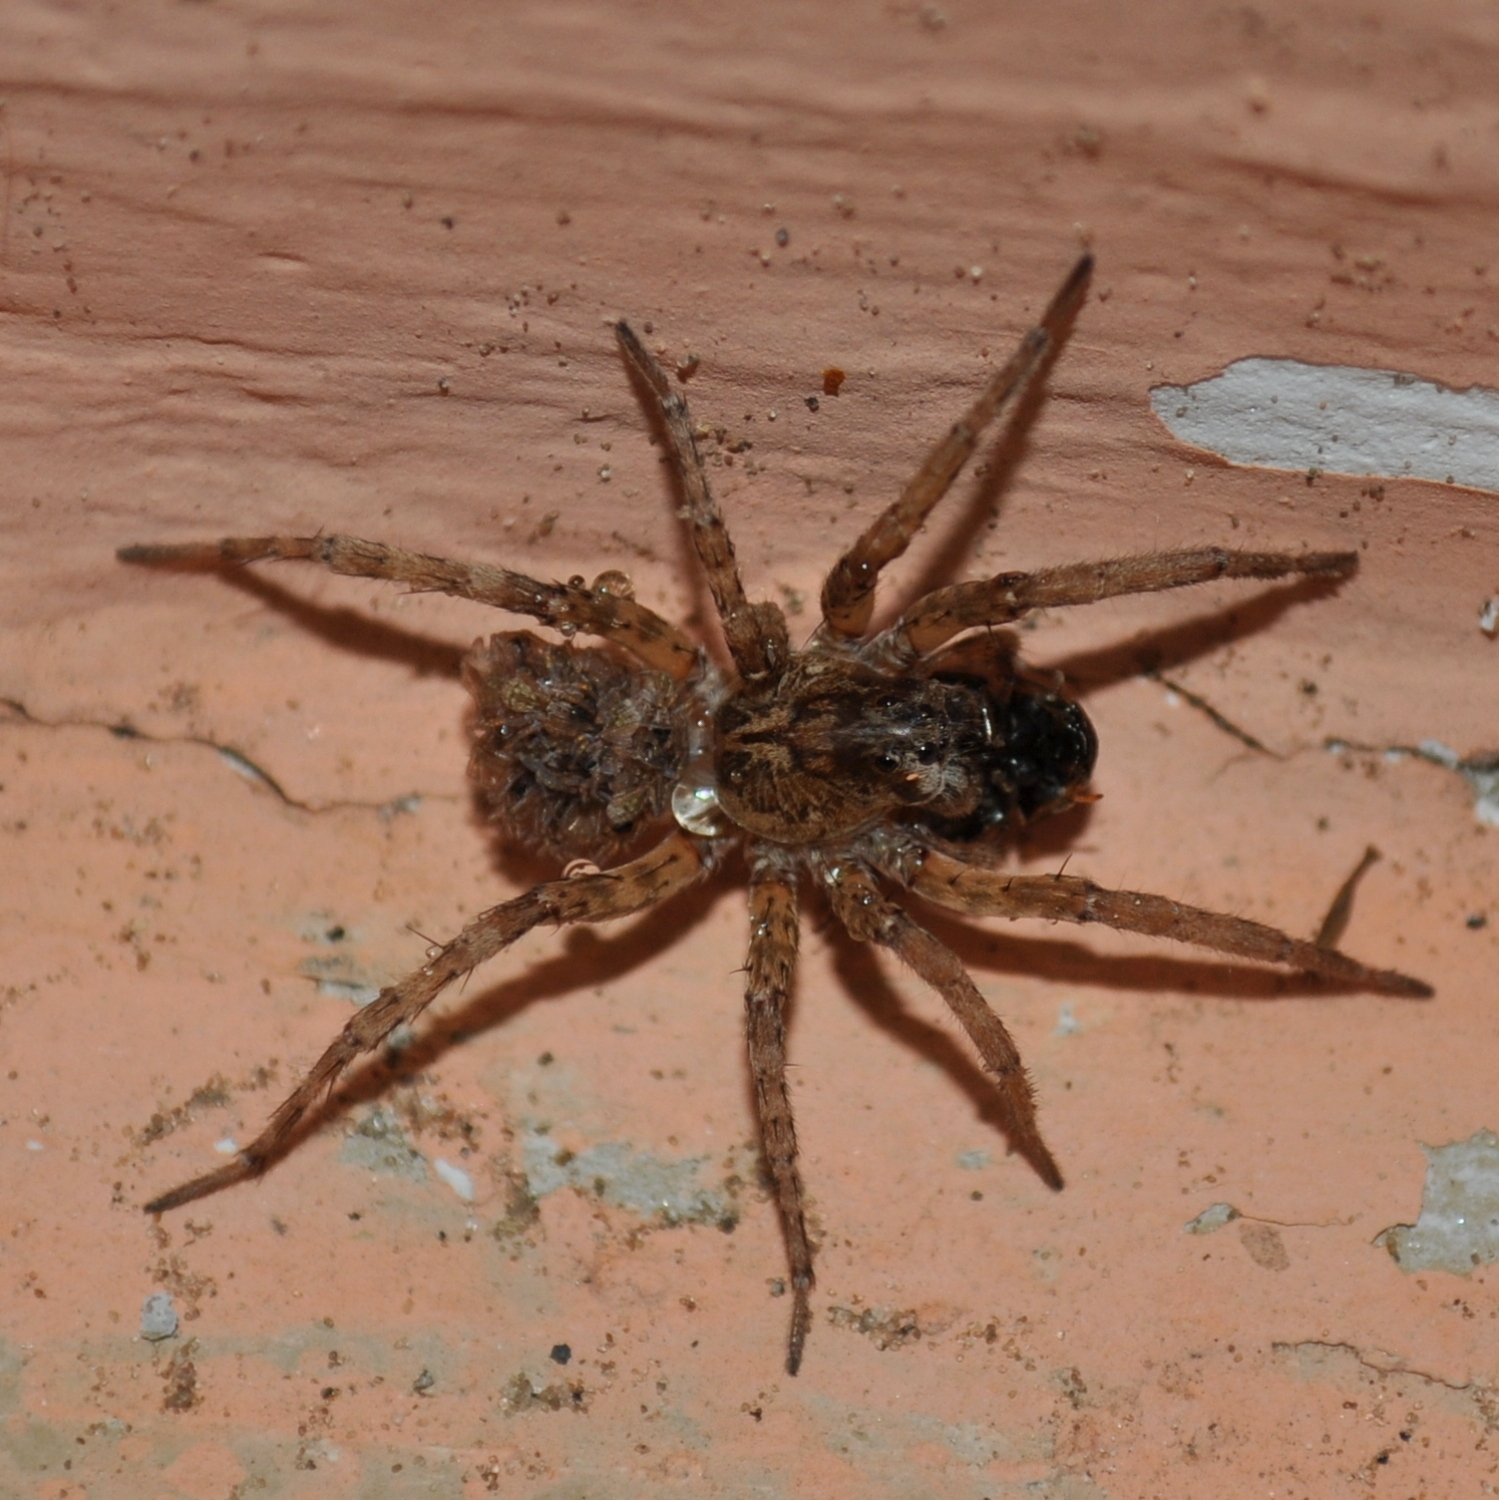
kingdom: Animalia
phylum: Arthropoda
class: Arachnida
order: Araneae
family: Lycosidae
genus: Paratrochosina
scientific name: Paratrochosina amica
